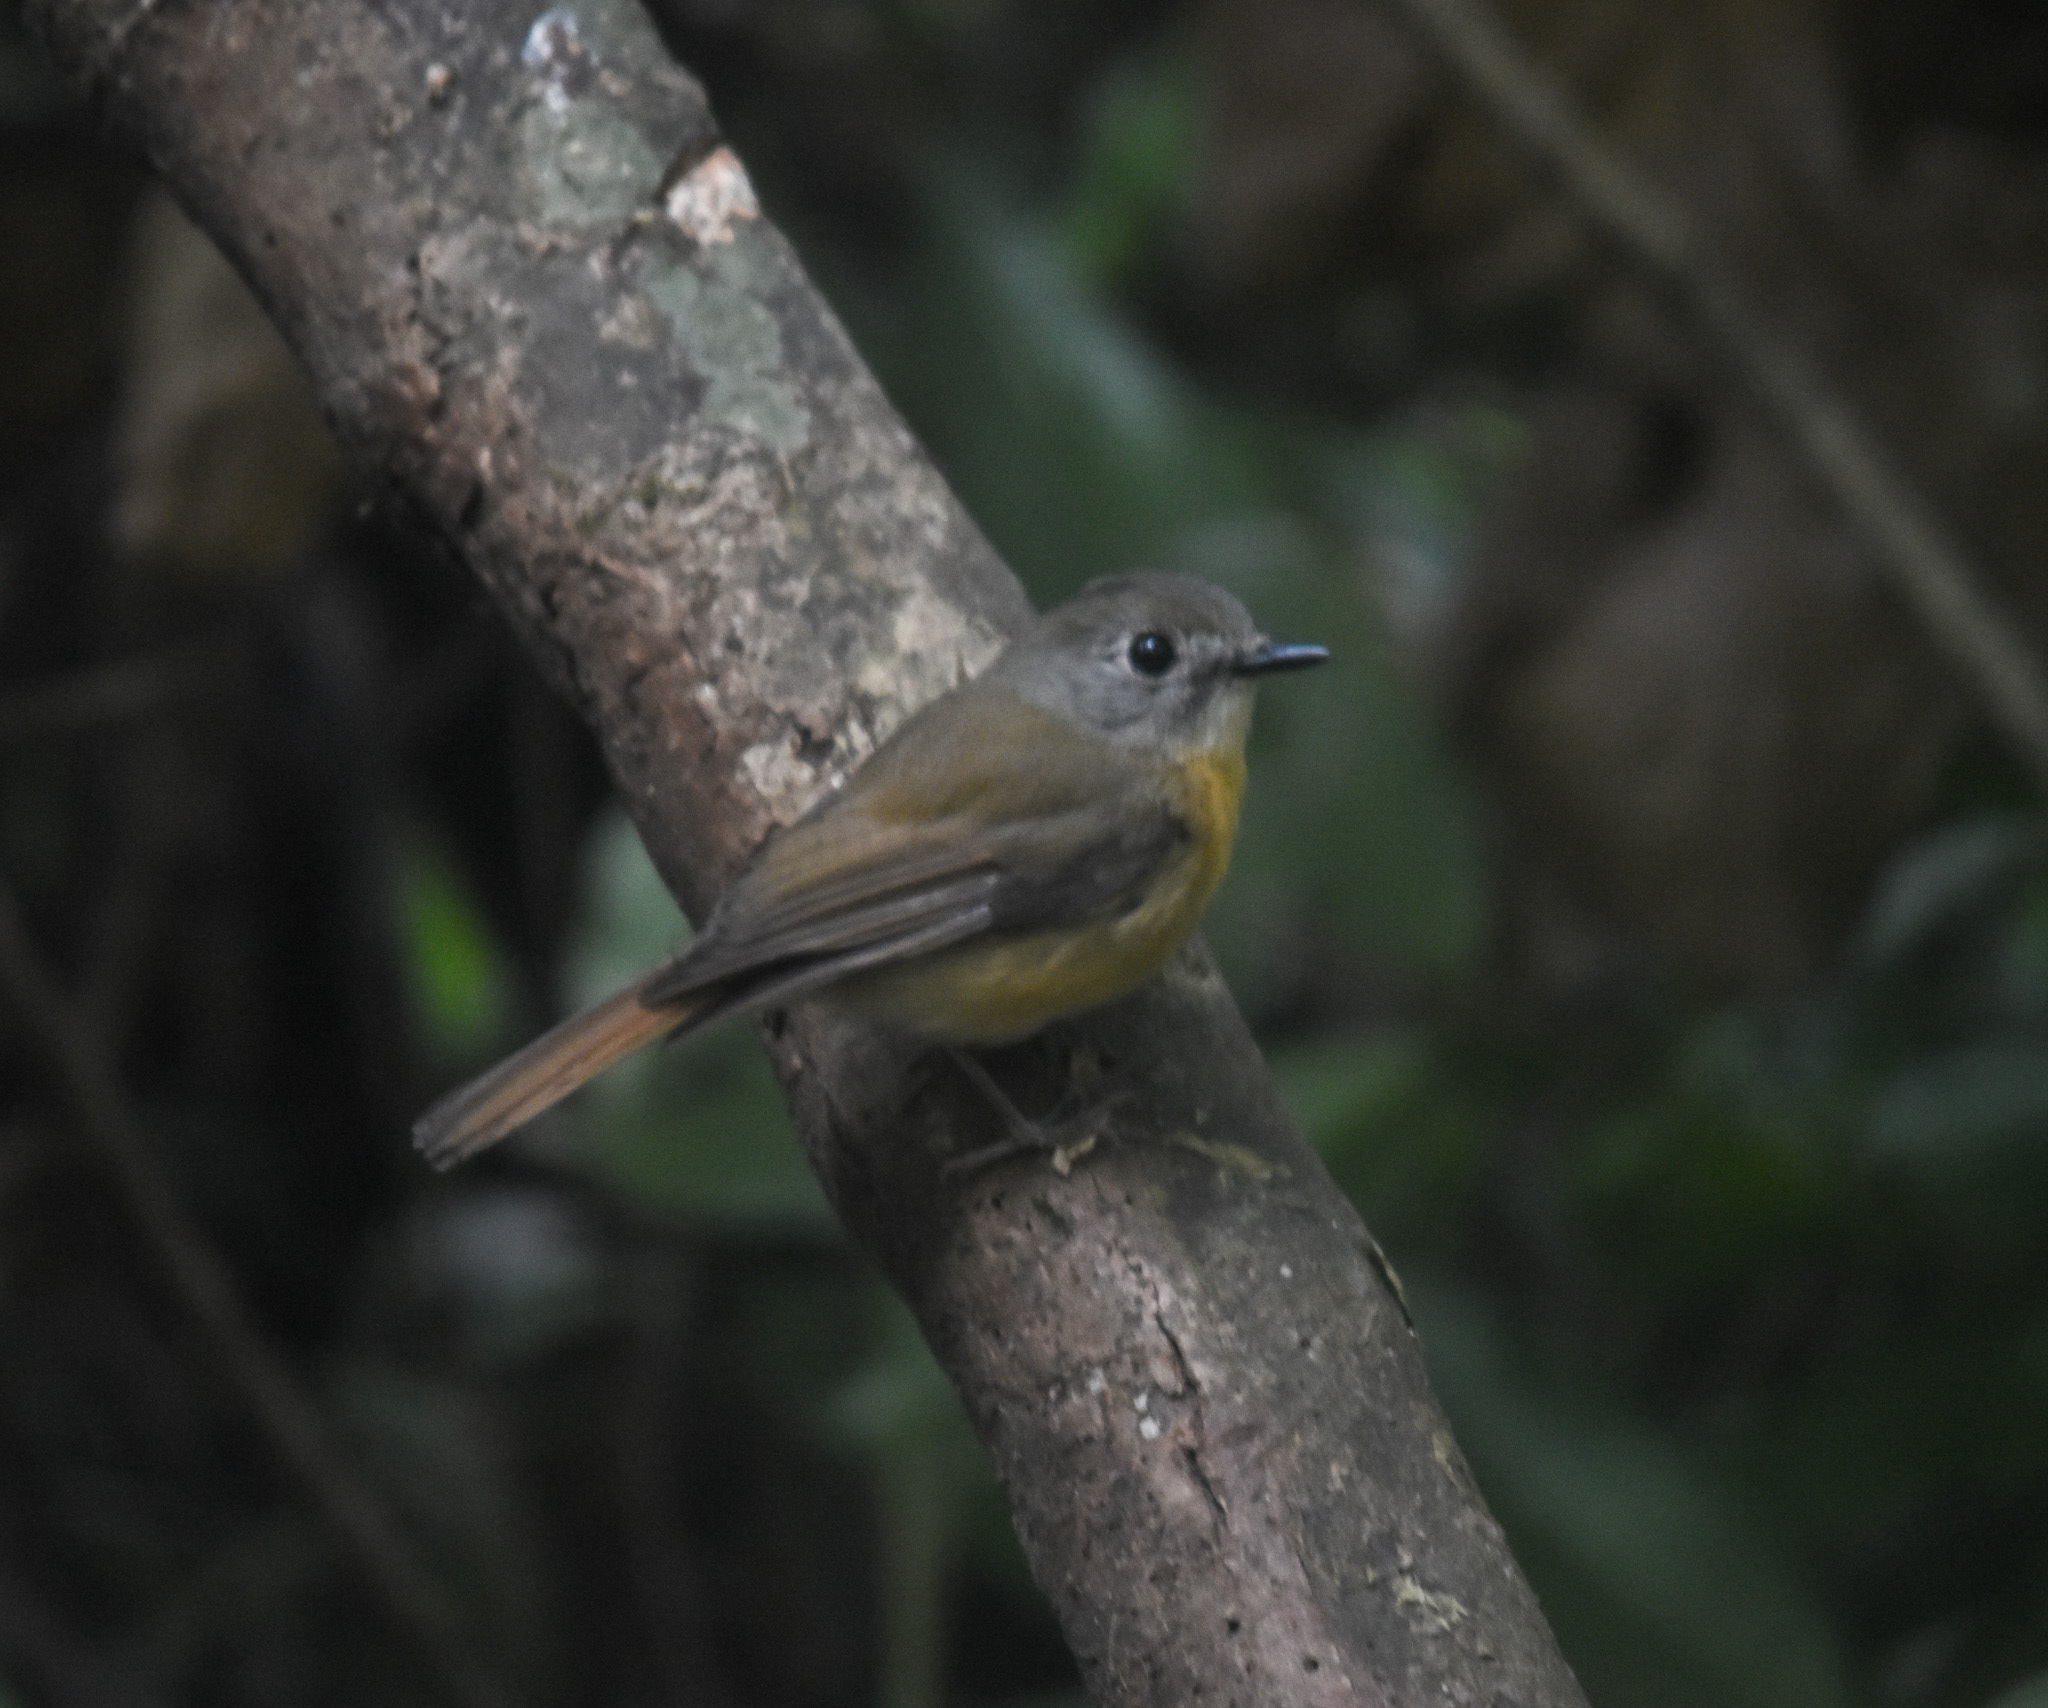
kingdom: Animalia
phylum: Chordata
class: Aves
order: Passeriformes
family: Muscicapidae
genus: Cyornis
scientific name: Cyornis poliogenys
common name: Pale-chinned blue flycatcher
